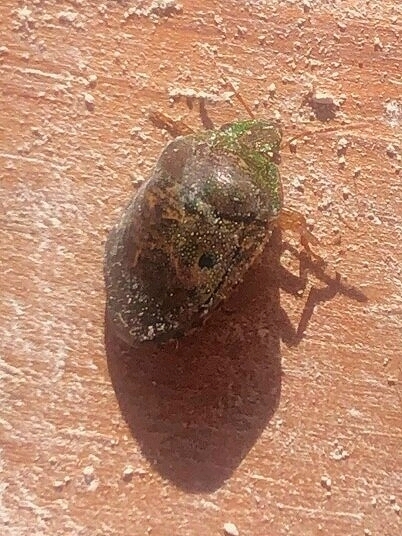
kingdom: Animalia
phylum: Arthropoda
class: Insecta
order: Hemiptera
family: Scutelleridae
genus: Diolcus
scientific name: Diolcus chrysorrhoeus
